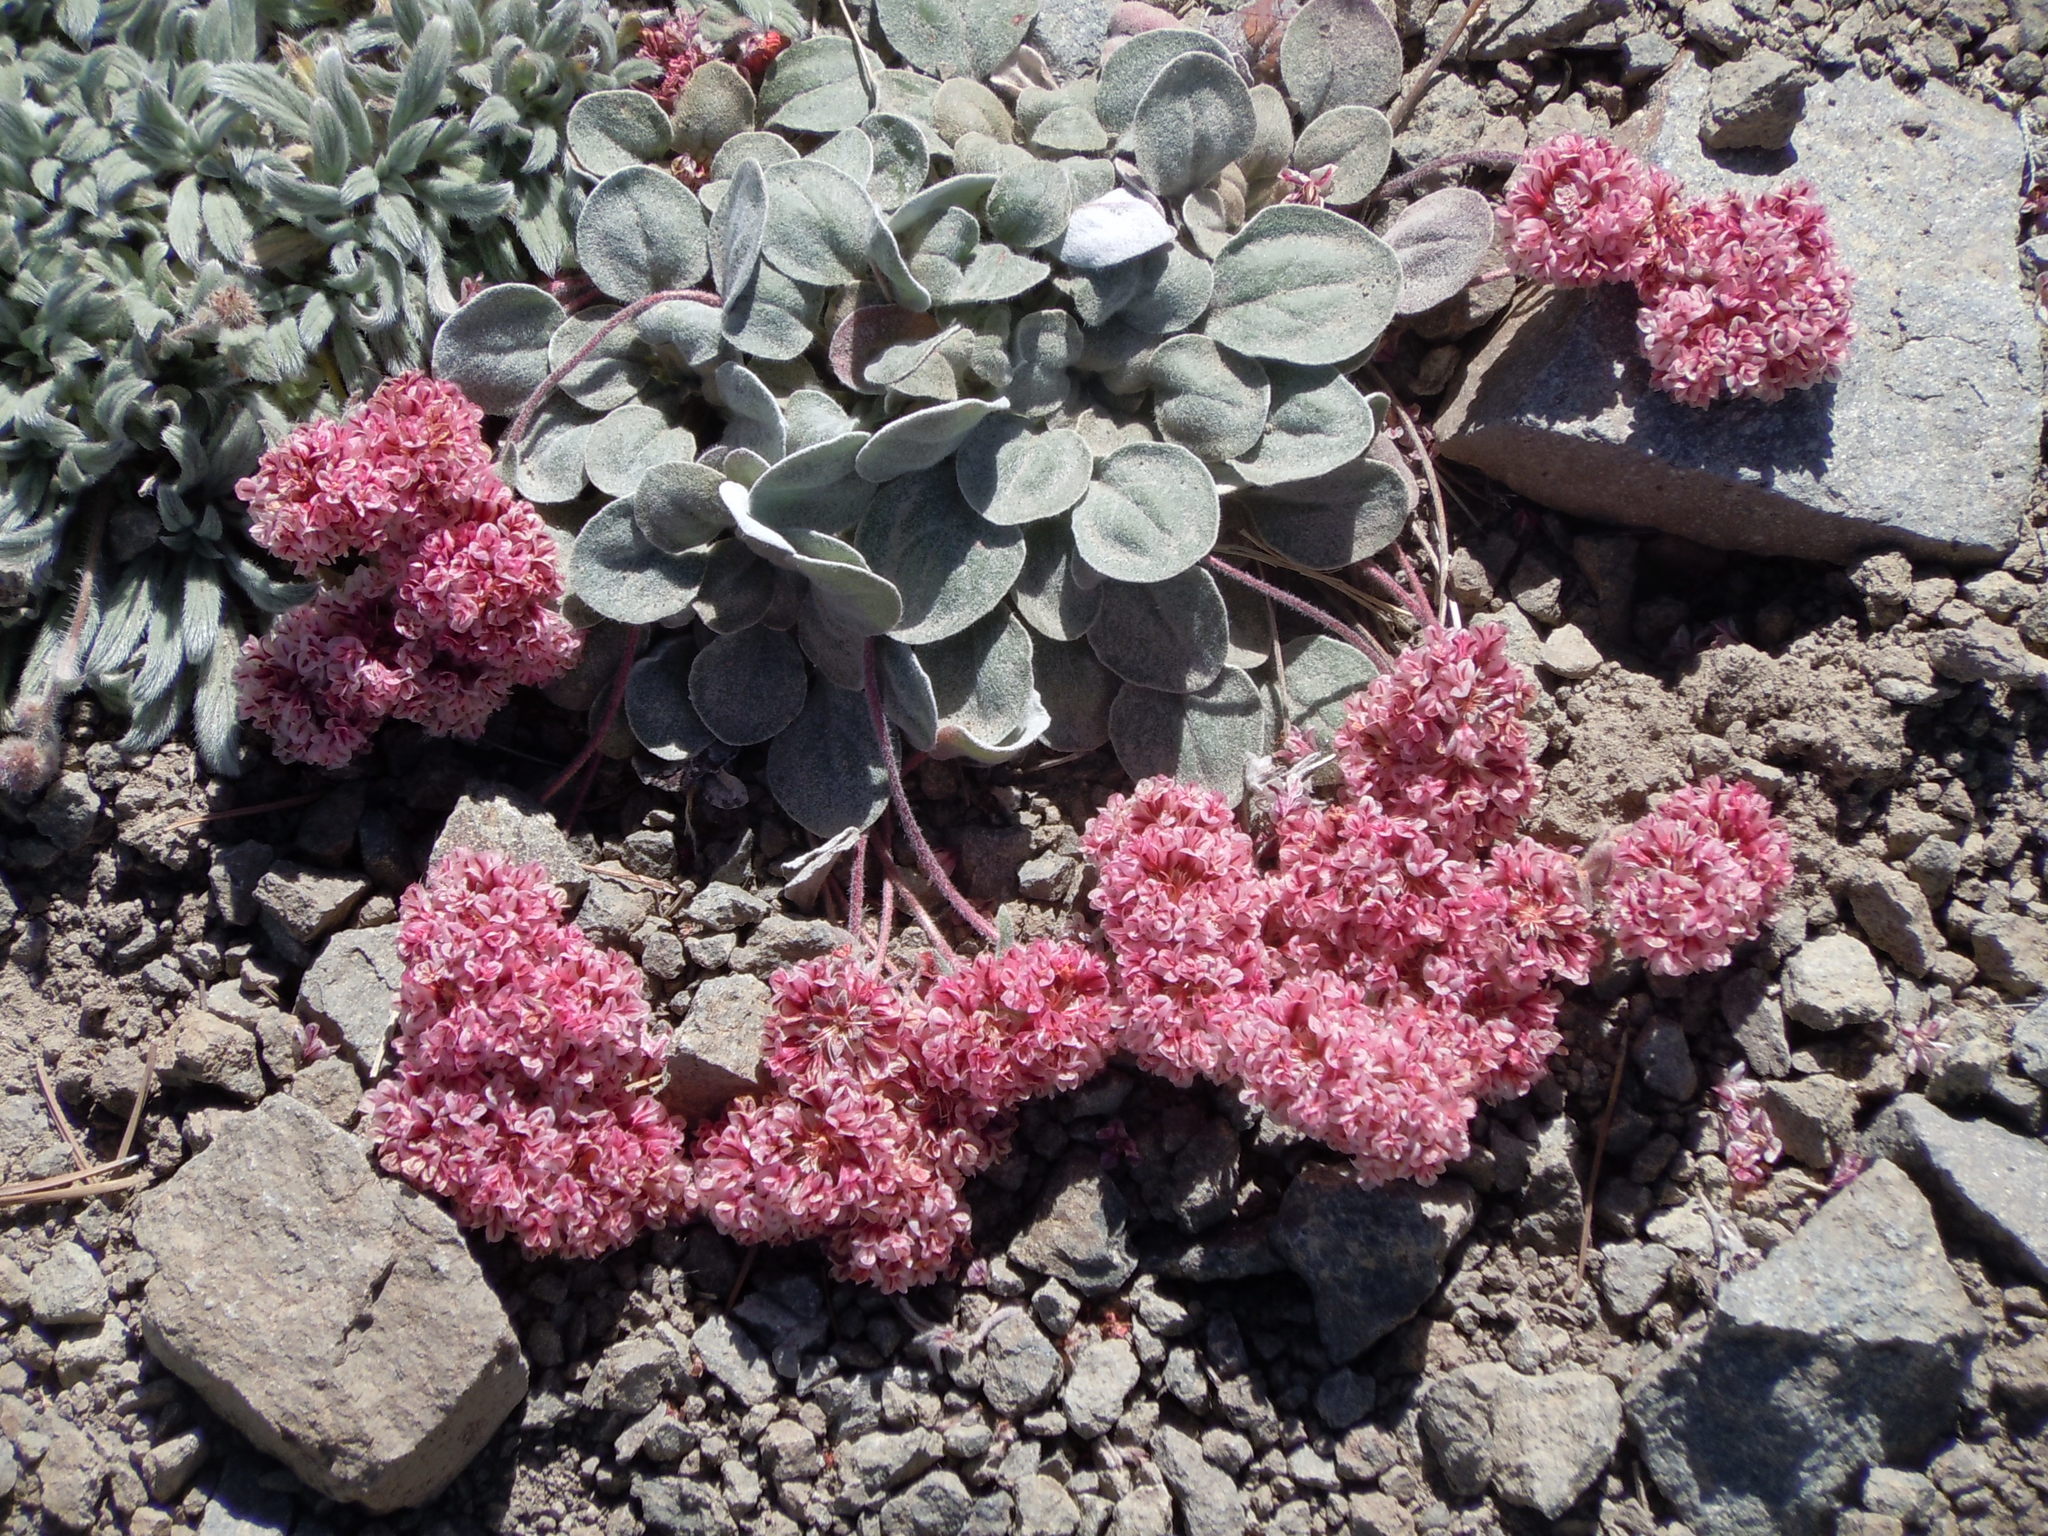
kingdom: Plantae
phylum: Tracheophyta
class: Magnoliopsida
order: Caryophyllales
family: Polygonaceae
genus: Eriogonum
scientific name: Eriogonum lobbii
